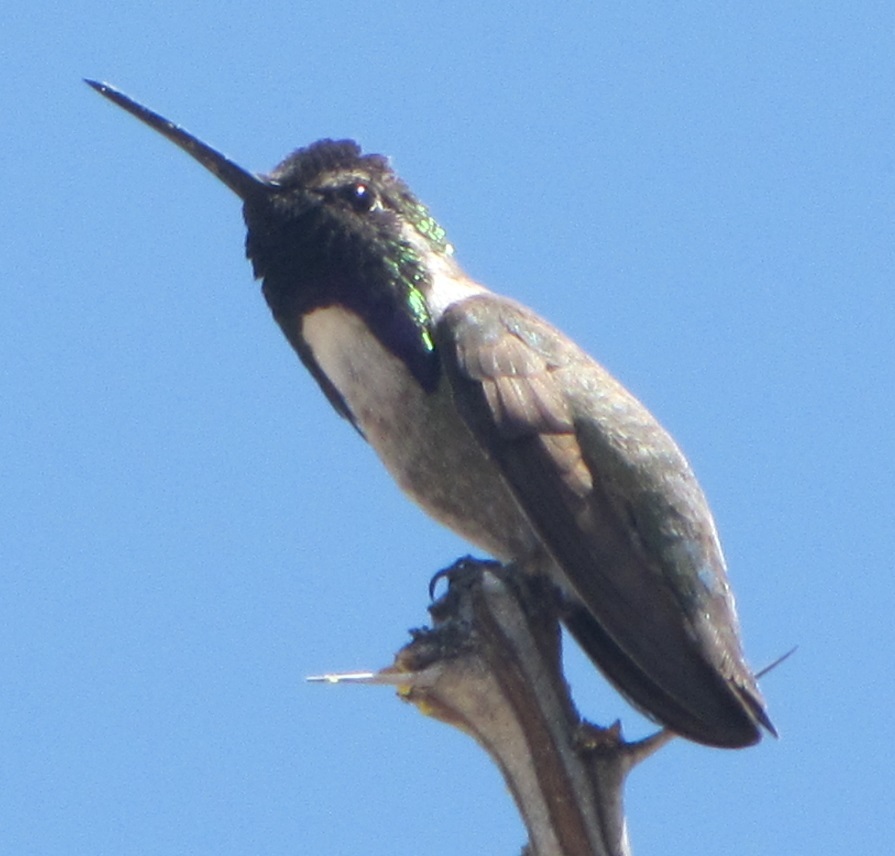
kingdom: Animalia
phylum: Chordata
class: Aves
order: Apodiformes
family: Trochilidae
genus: Calypte
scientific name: Calypte costae
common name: Costa's hummingbird
